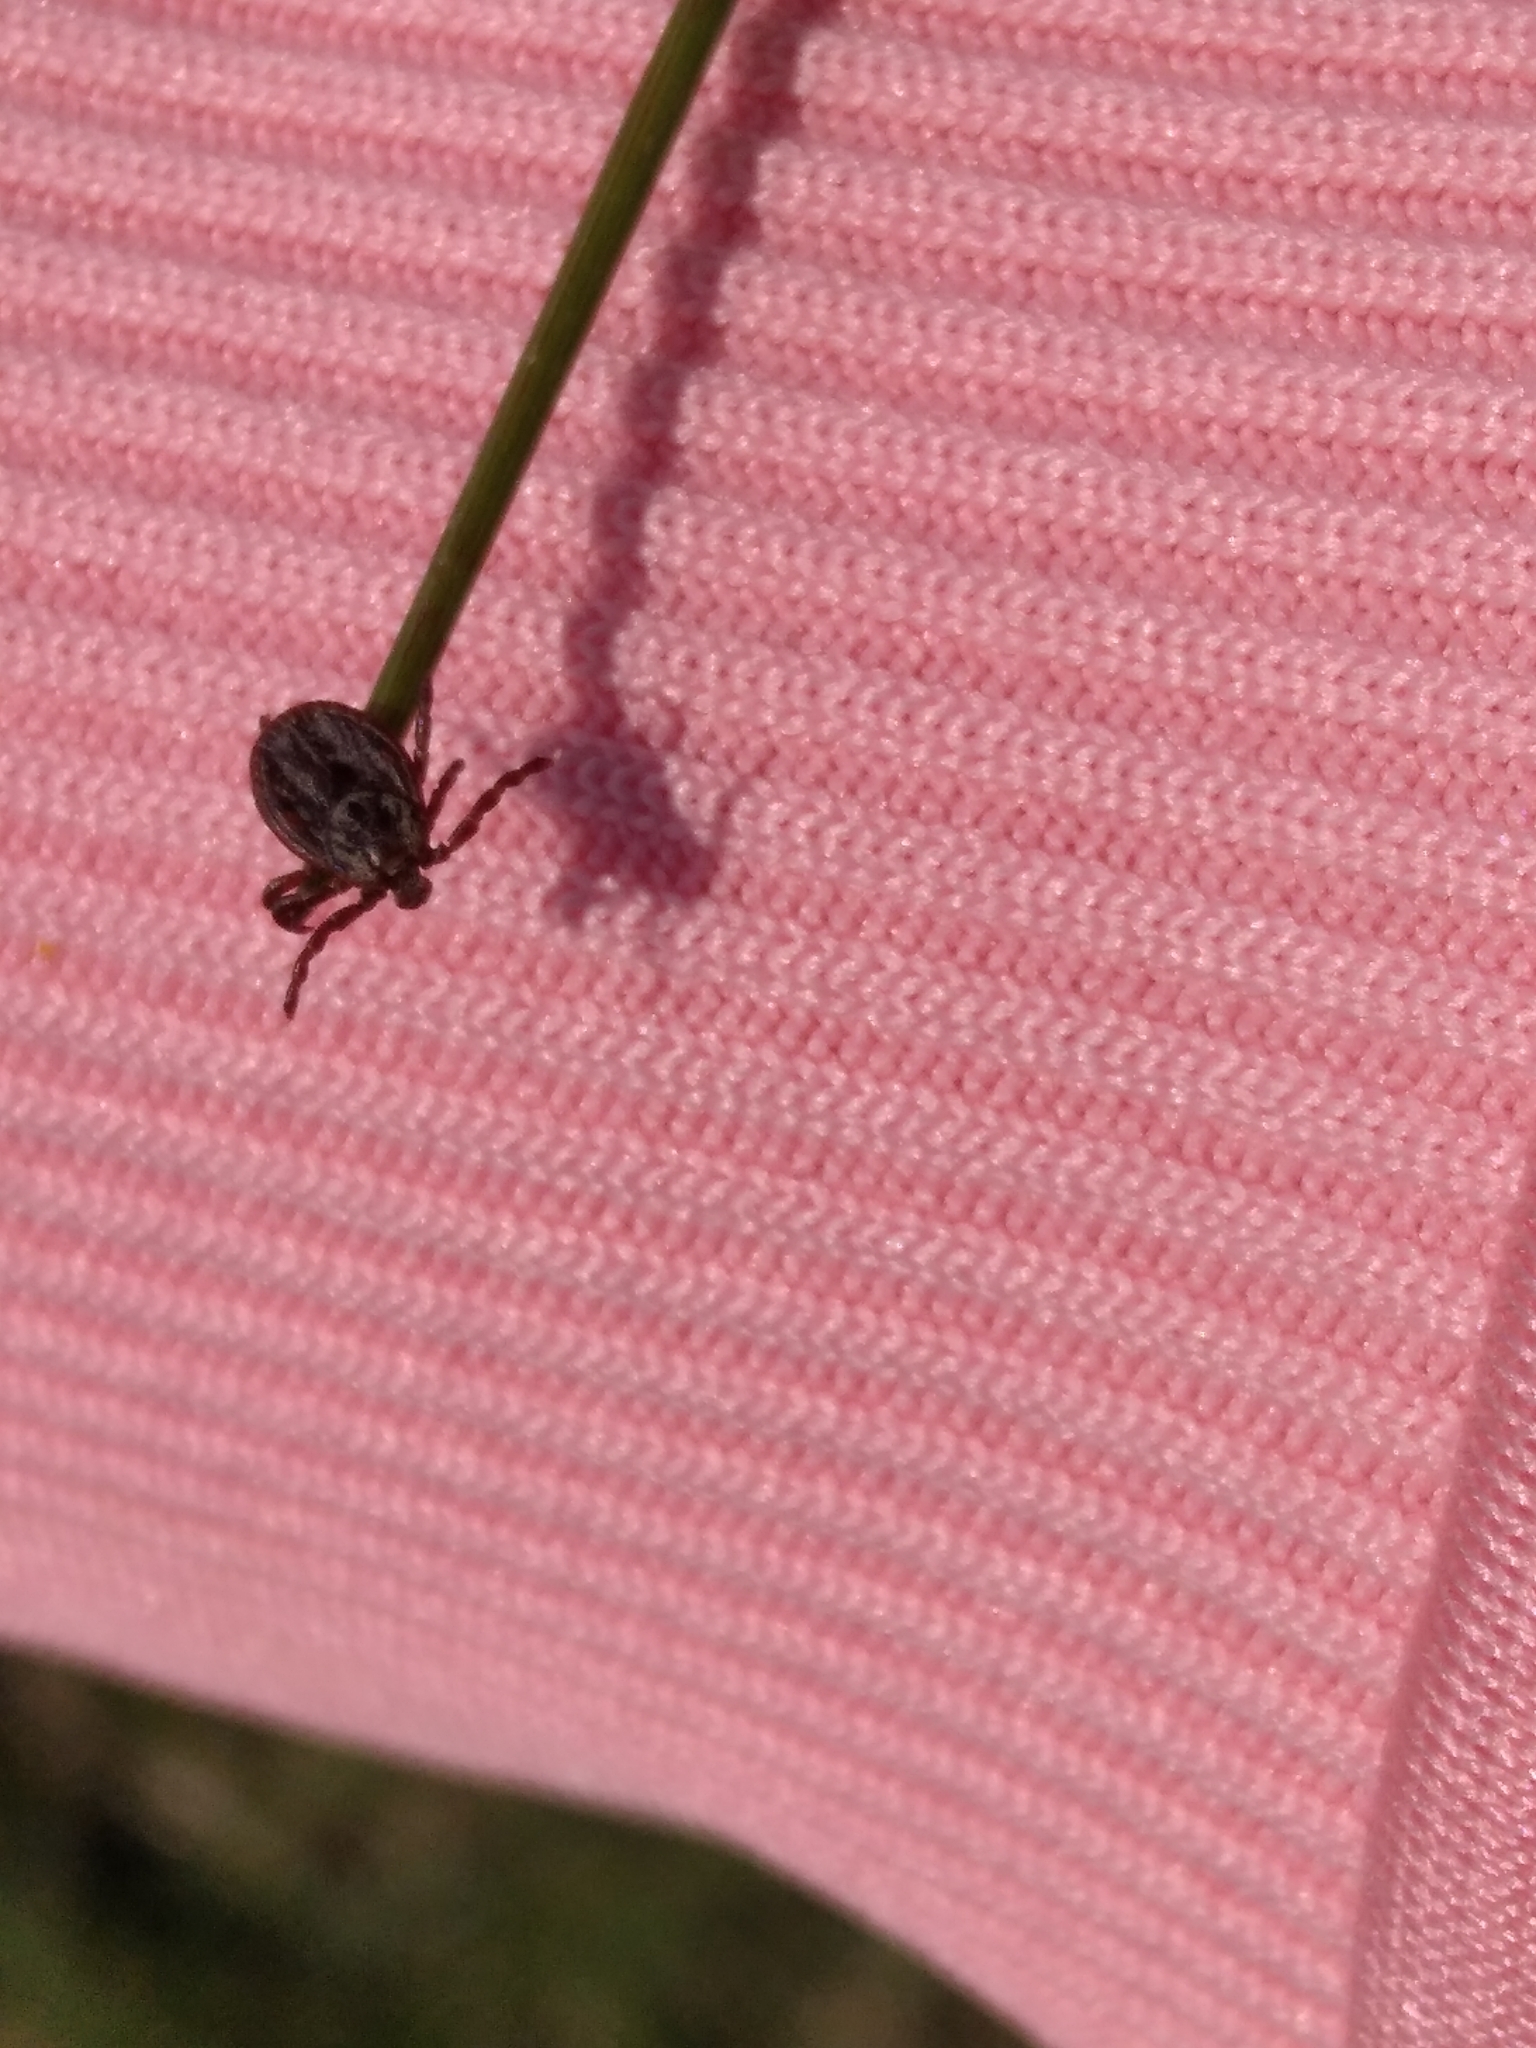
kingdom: Animalia
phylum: Arthropoda
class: Arachnida
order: Ixodida
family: Ixodidae
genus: Dermacentor
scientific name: Dermacentor reticulatus
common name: Ornate cow tick
